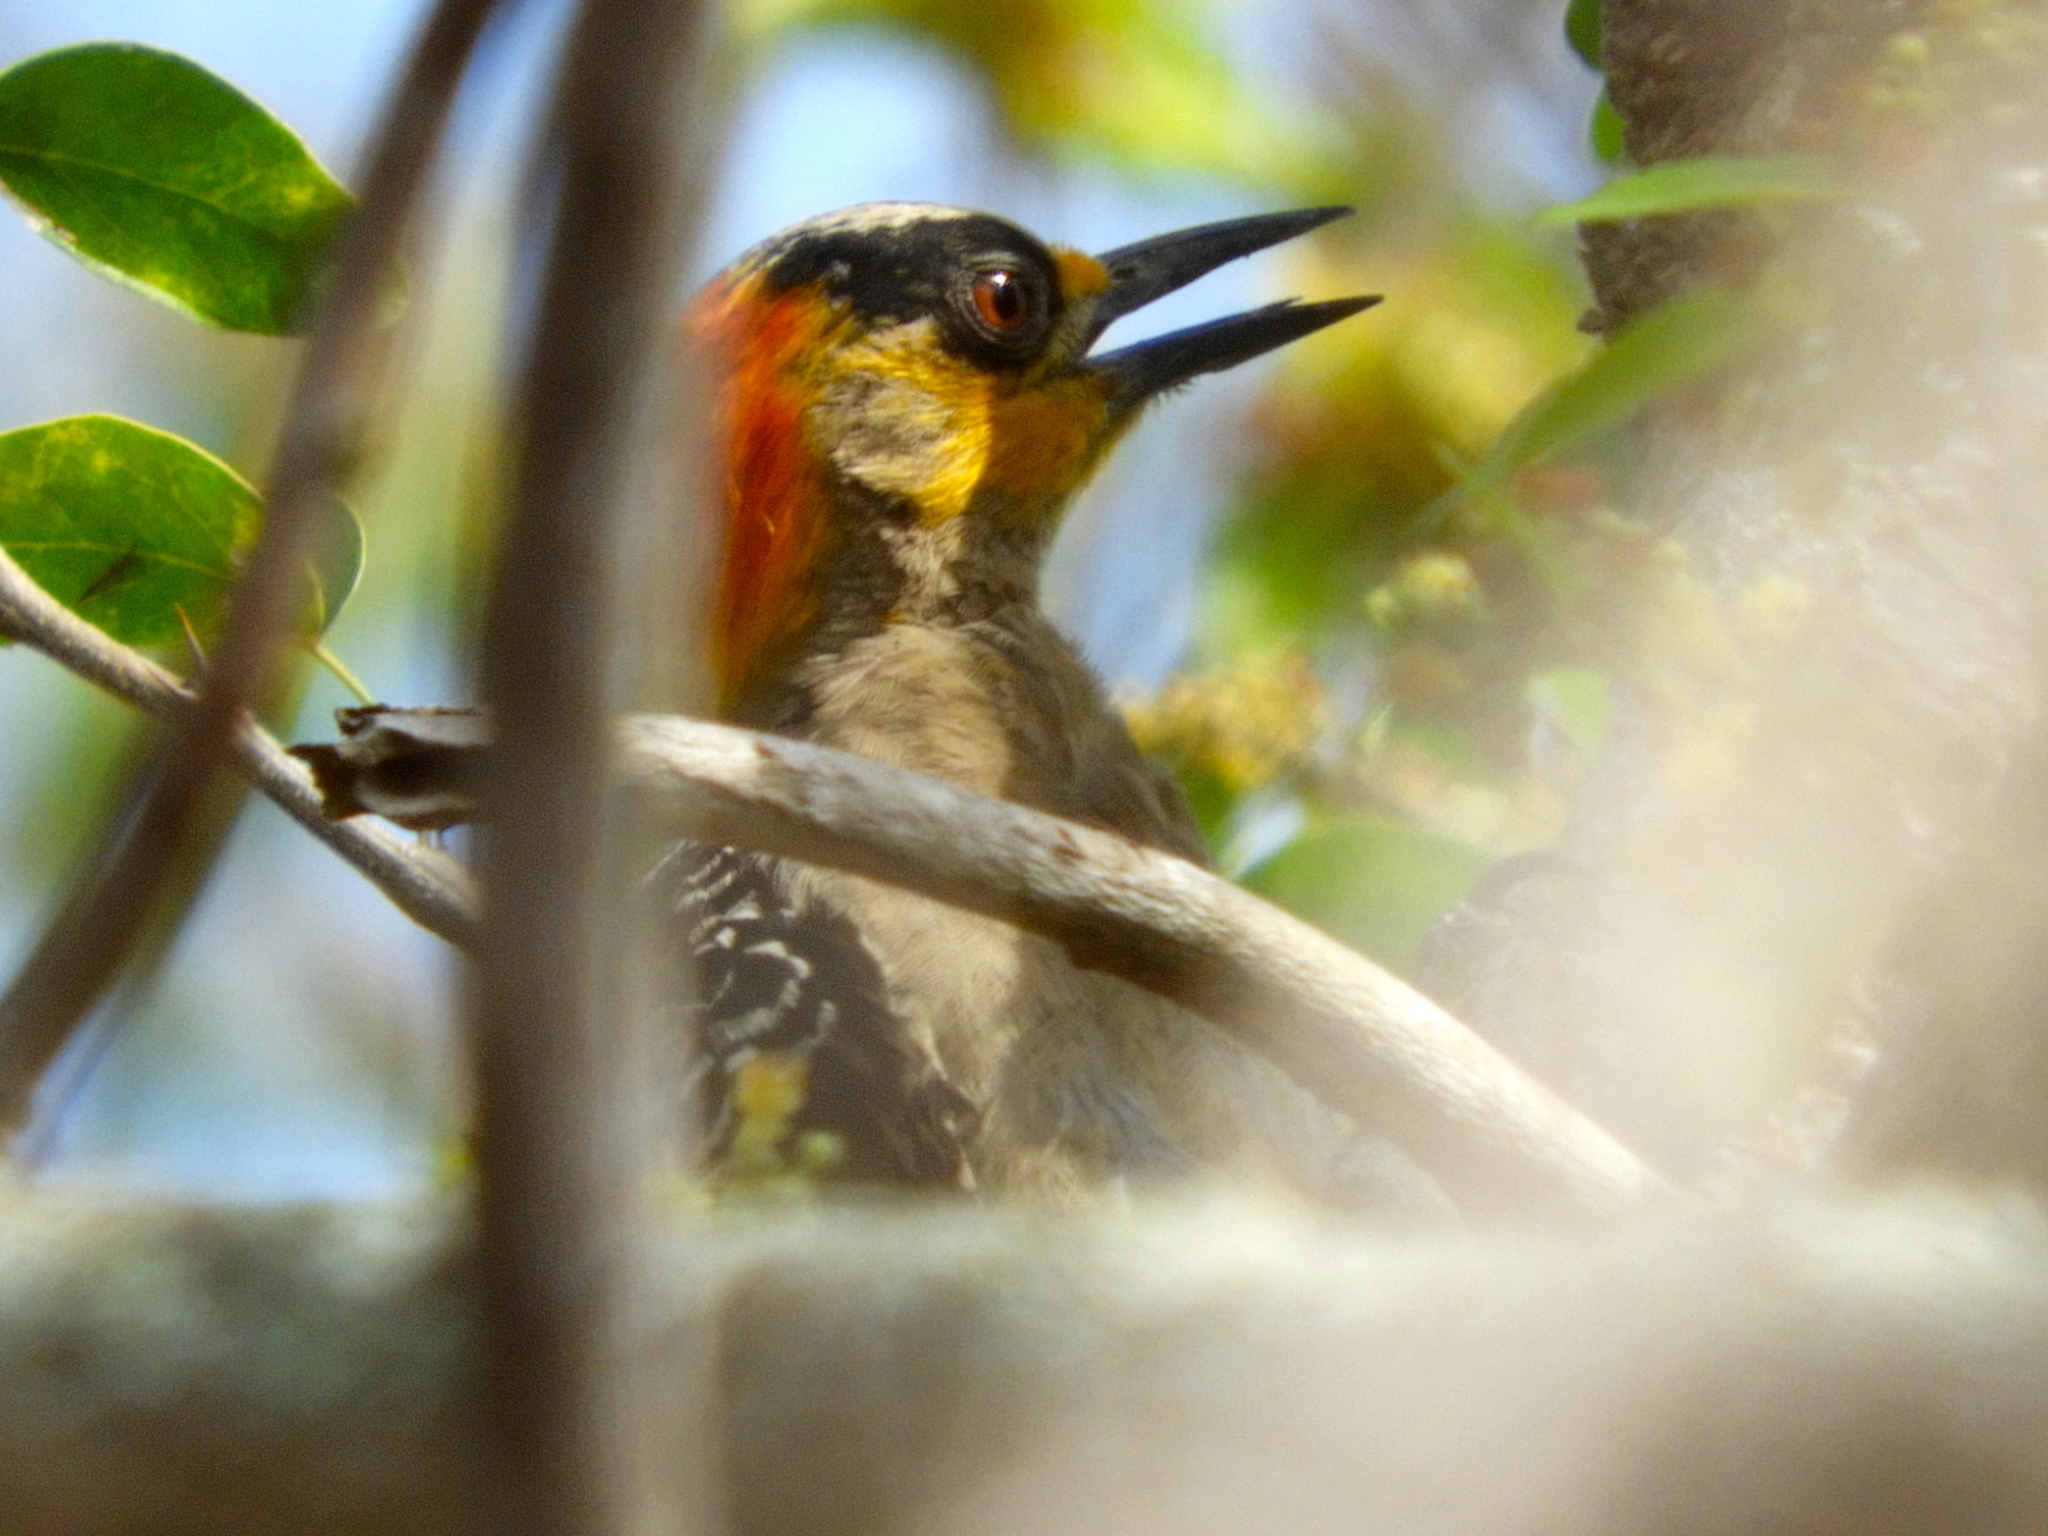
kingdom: Animalia
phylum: Chordata
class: Aves
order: Piciformes
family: Picidae
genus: Melanerpes
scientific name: Melanerpes chrysogenys
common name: Golden-cheeked woodpecker
